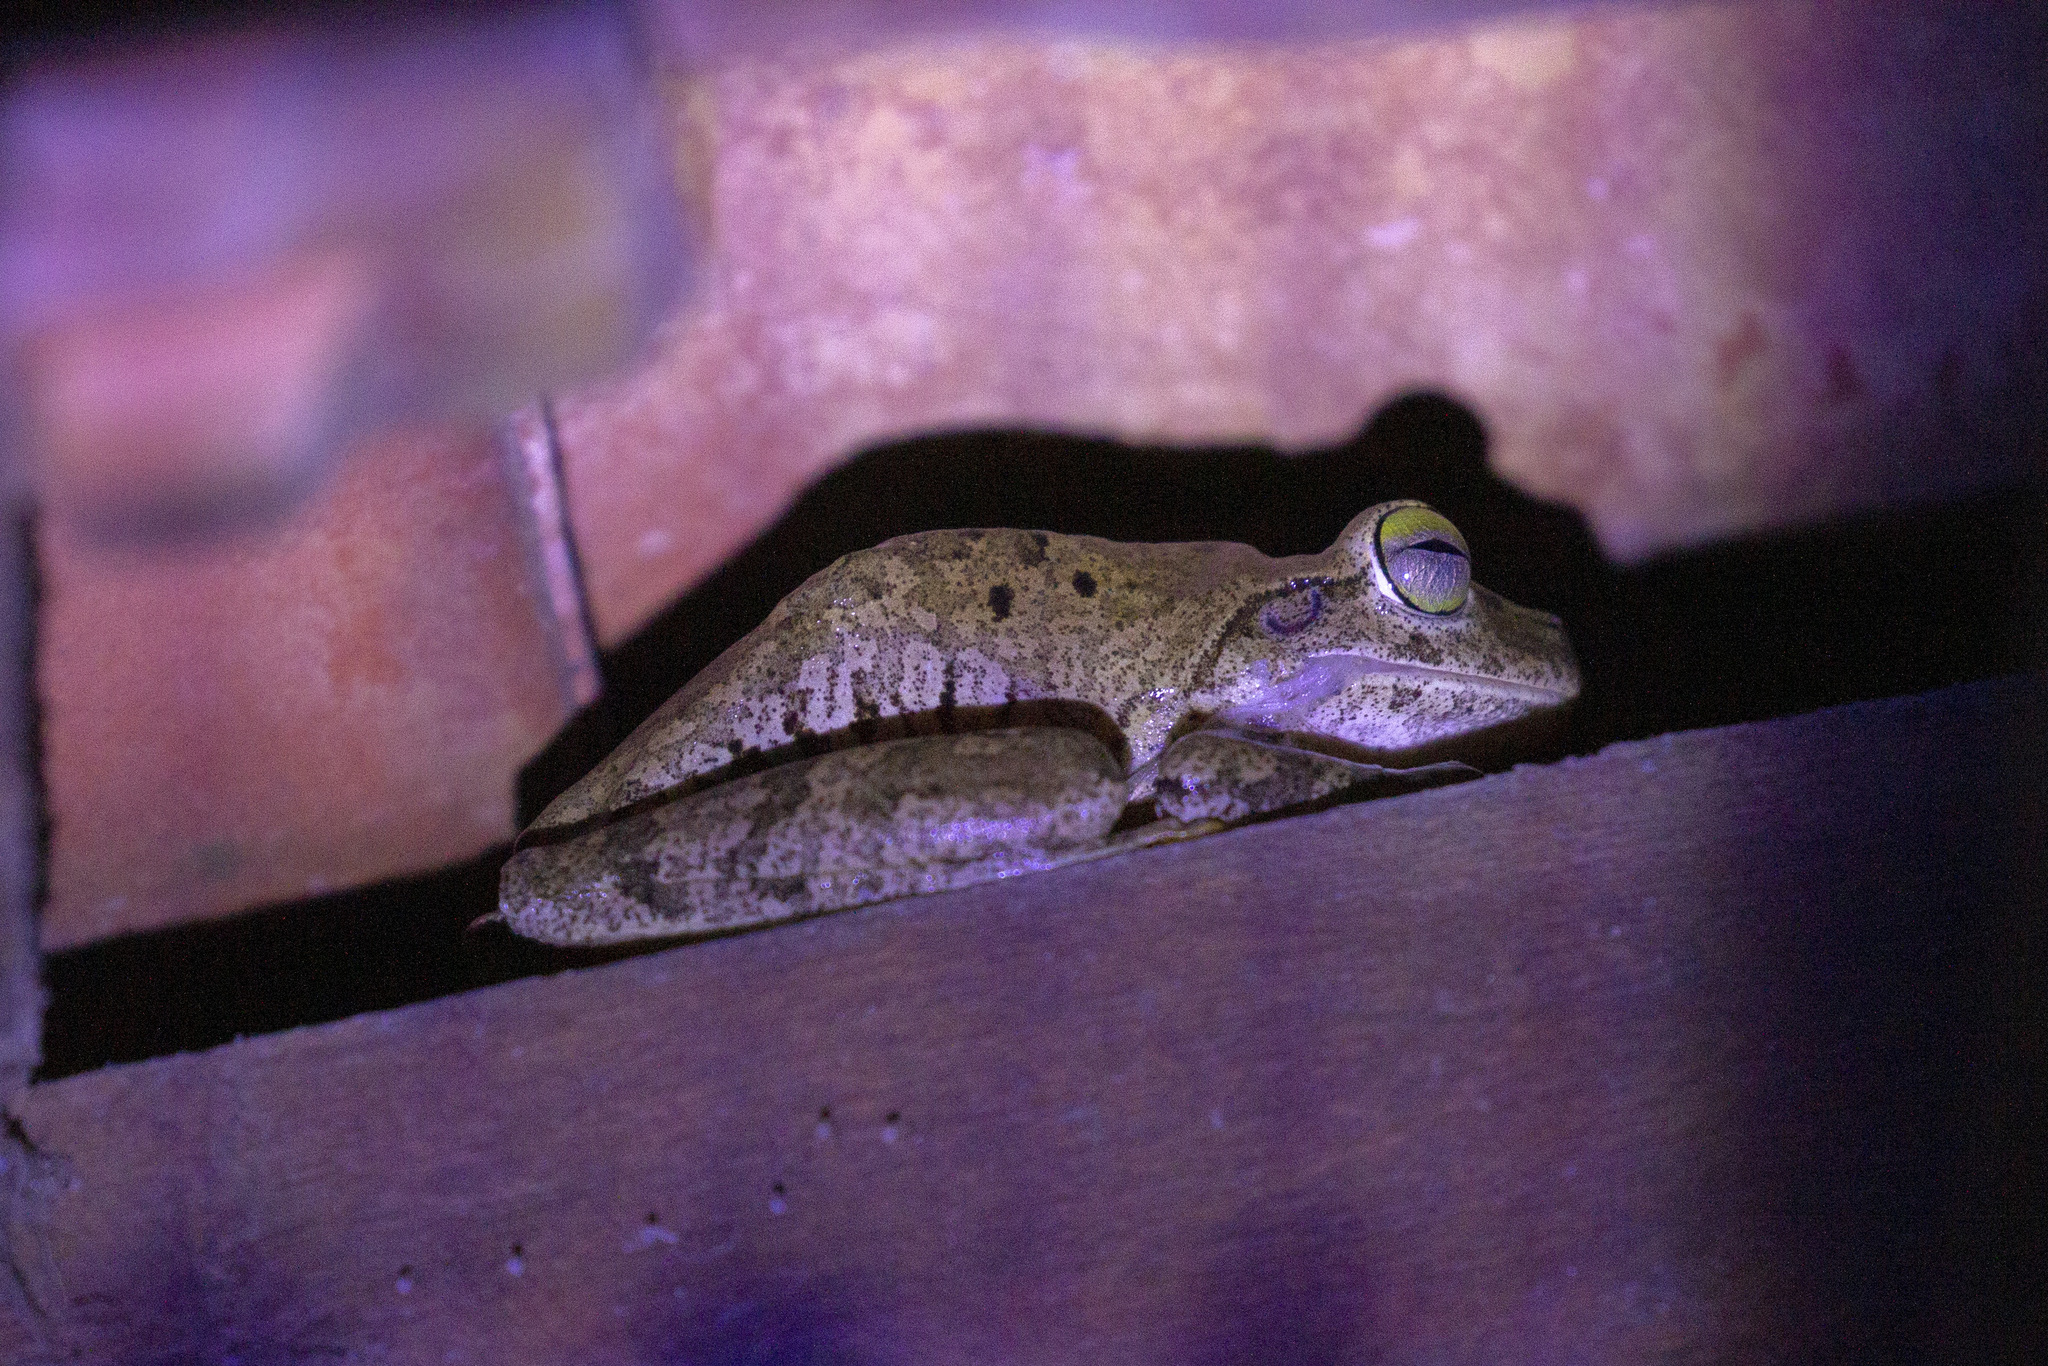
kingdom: Animalia
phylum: Chordata
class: Amphibia
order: Anura
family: Hylidae
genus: Boana
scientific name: Boana crepitans
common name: Emerald-eyed treefrog
